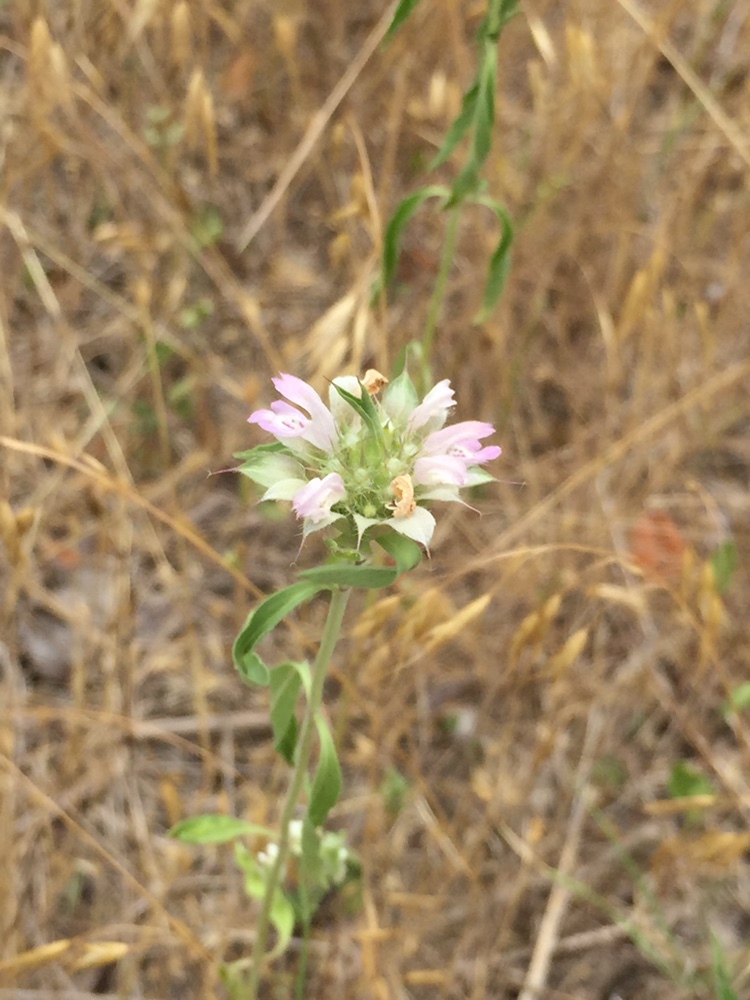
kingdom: Plantae
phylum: Tracheophyta
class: Magnoliopsida
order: Lamiales
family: Lamiaceae
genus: Monarda
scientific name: Monarda citriodora
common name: Lemon beebalm
